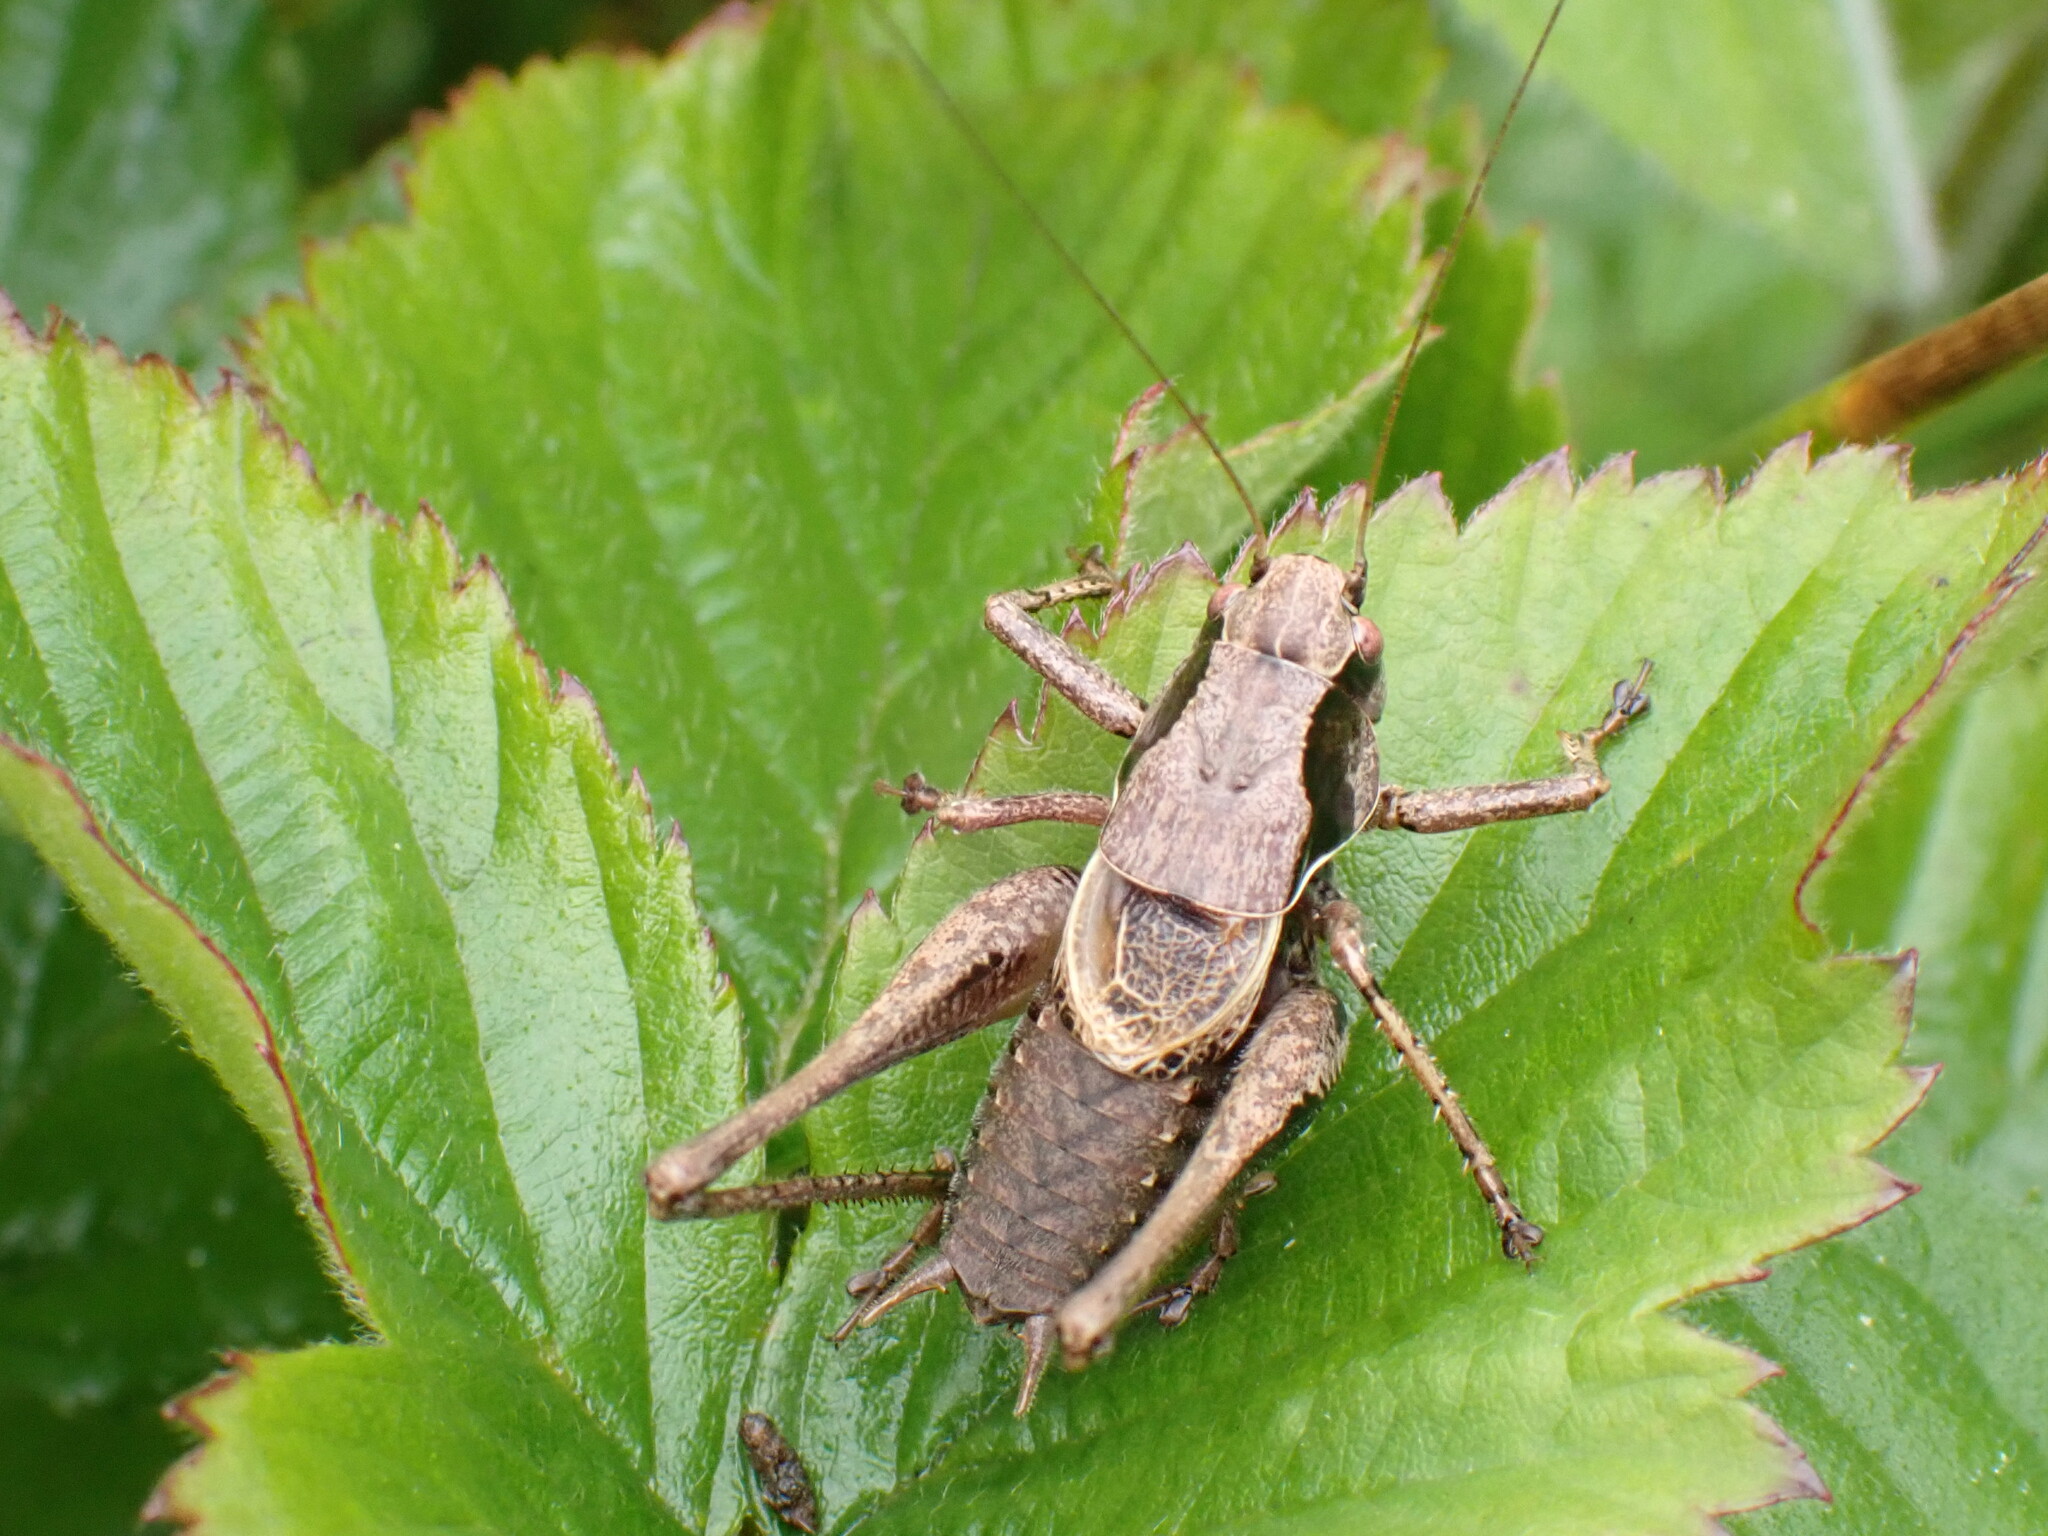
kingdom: Animalia
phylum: Arthropoda
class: Insecta
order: Orthoptera
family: Tettigoniidae
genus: Pholidoptera
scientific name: Pholidoptera griseoaptera
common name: Dark bush-cricket
